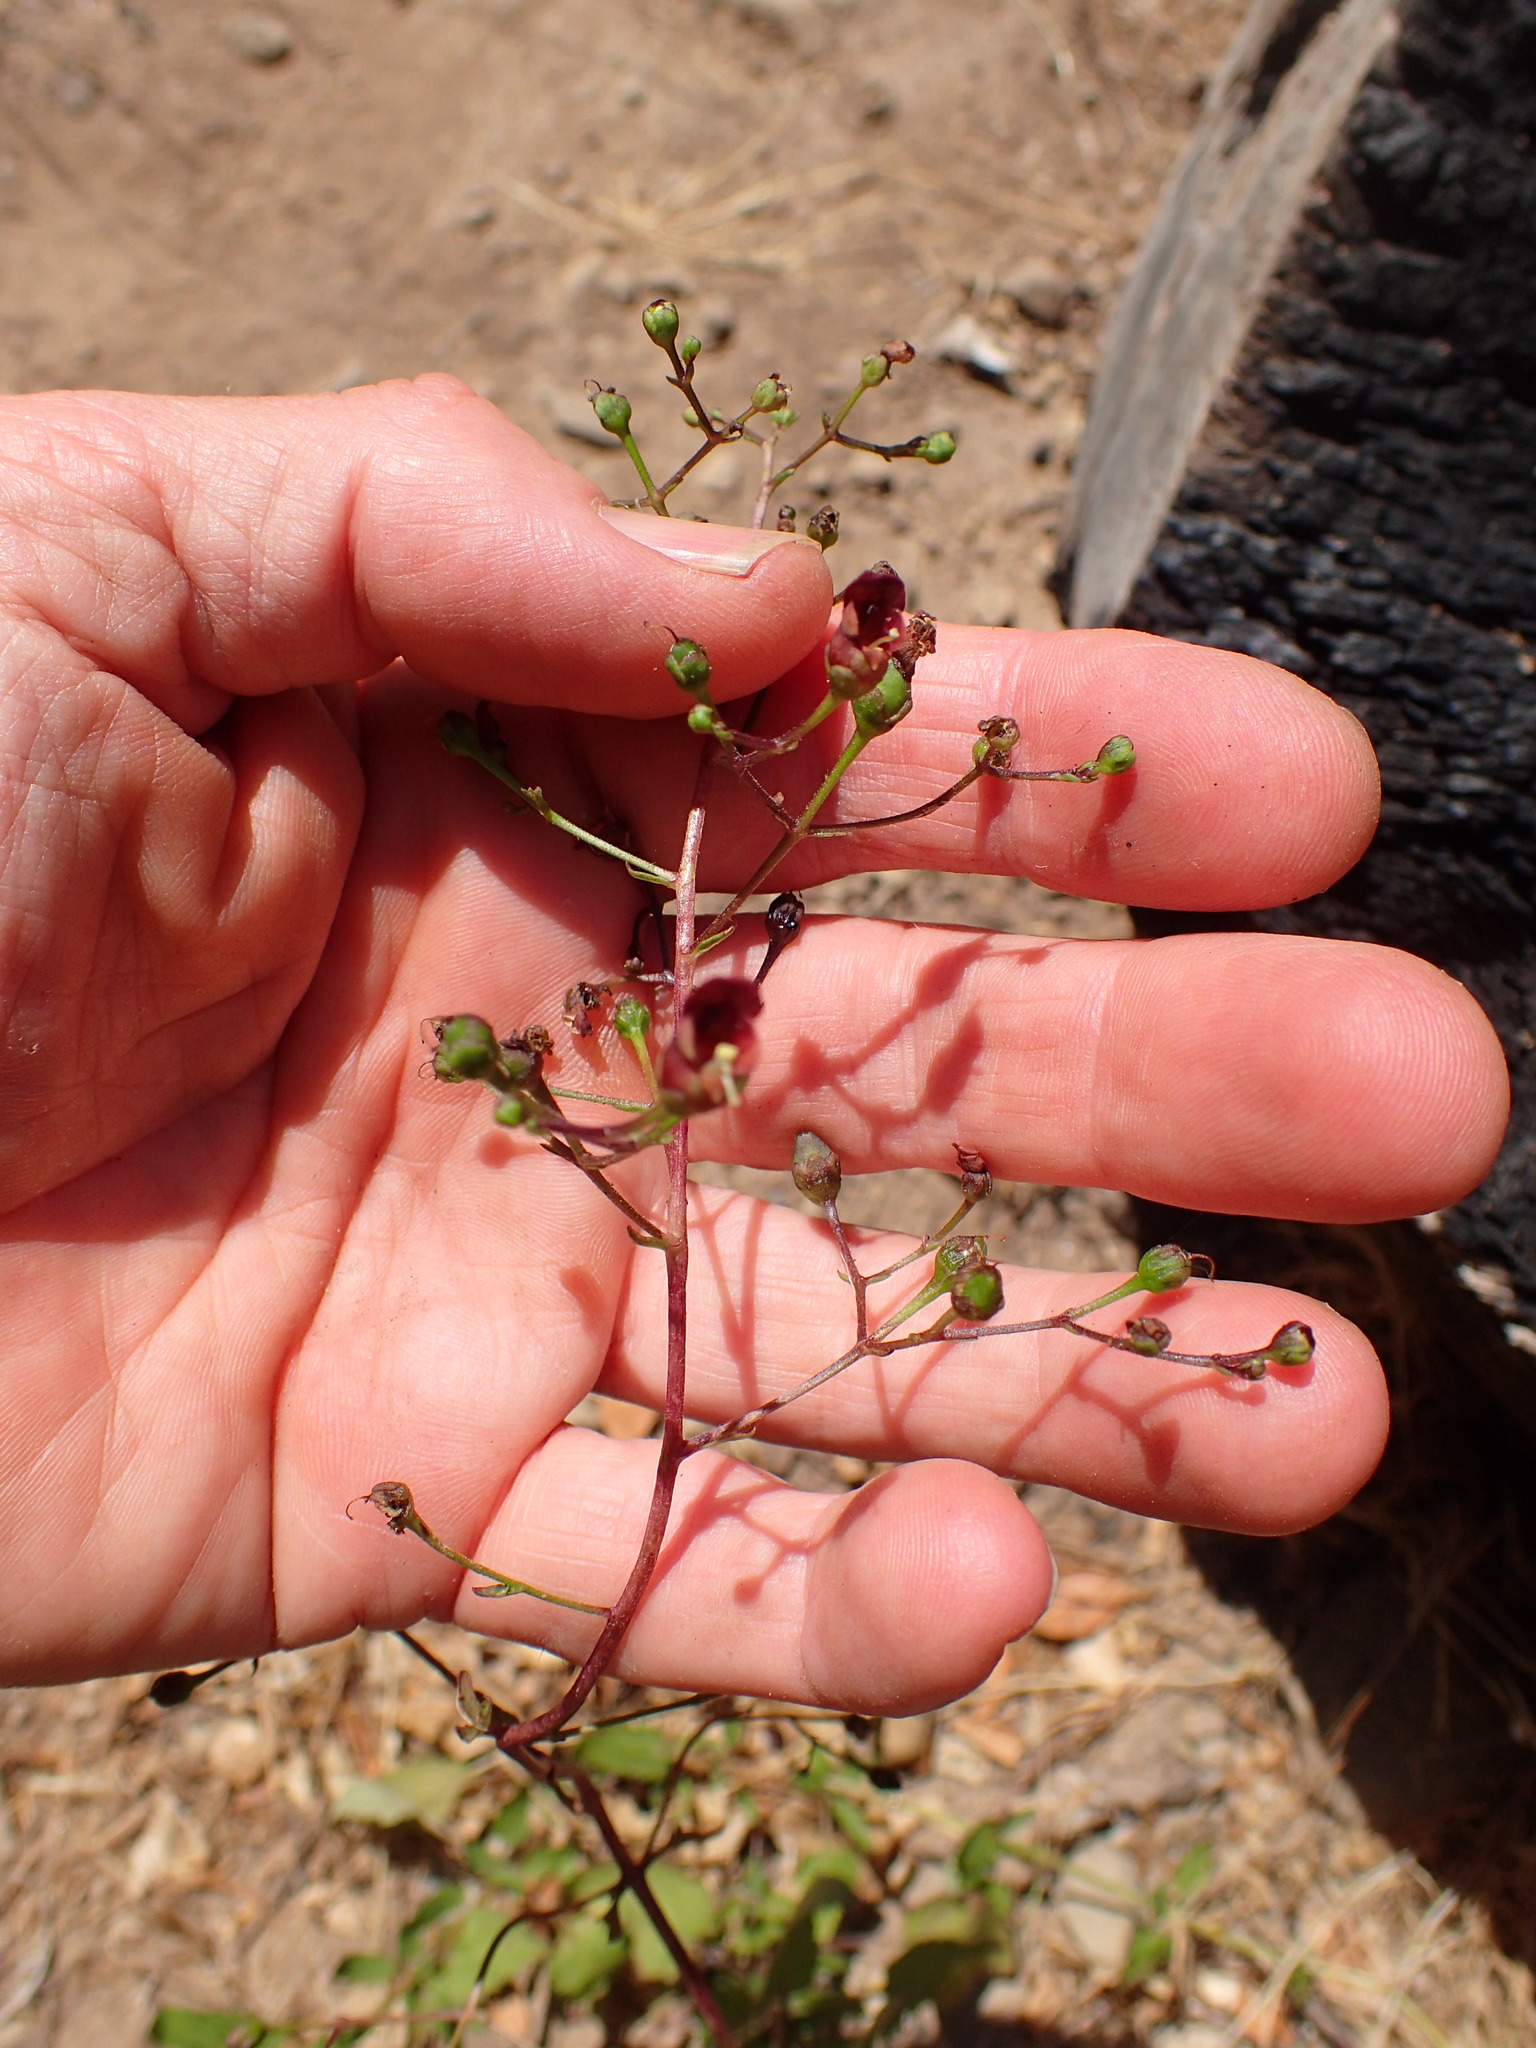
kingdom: Plantae
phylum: Tracheophyta
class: Magnoliopsida
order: Lamiales
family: Scrophulariaceae
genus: Scrophularia
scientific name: Scrophularia californica
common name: California figwort
